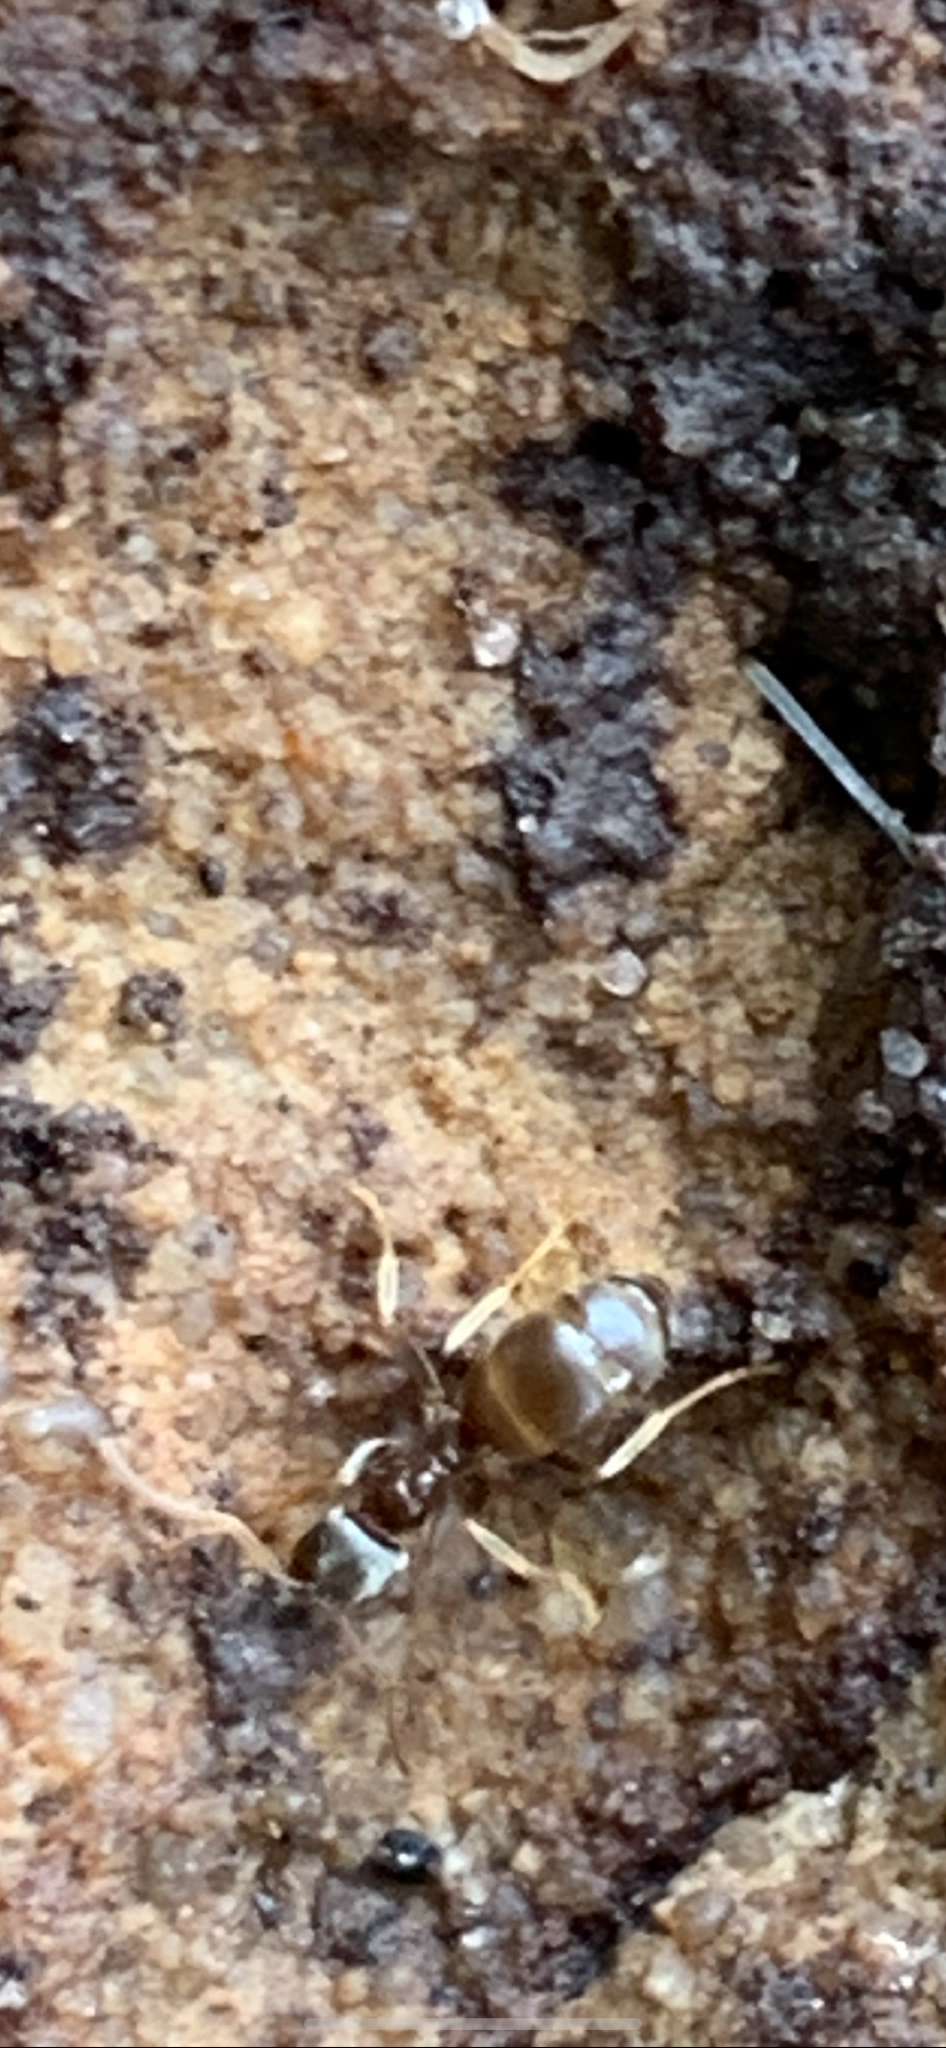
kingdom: Animalia
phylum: Arthropoda
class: Insecta
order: Hymenoptera
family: Formicidae
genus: Lasius
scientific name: Lasius
